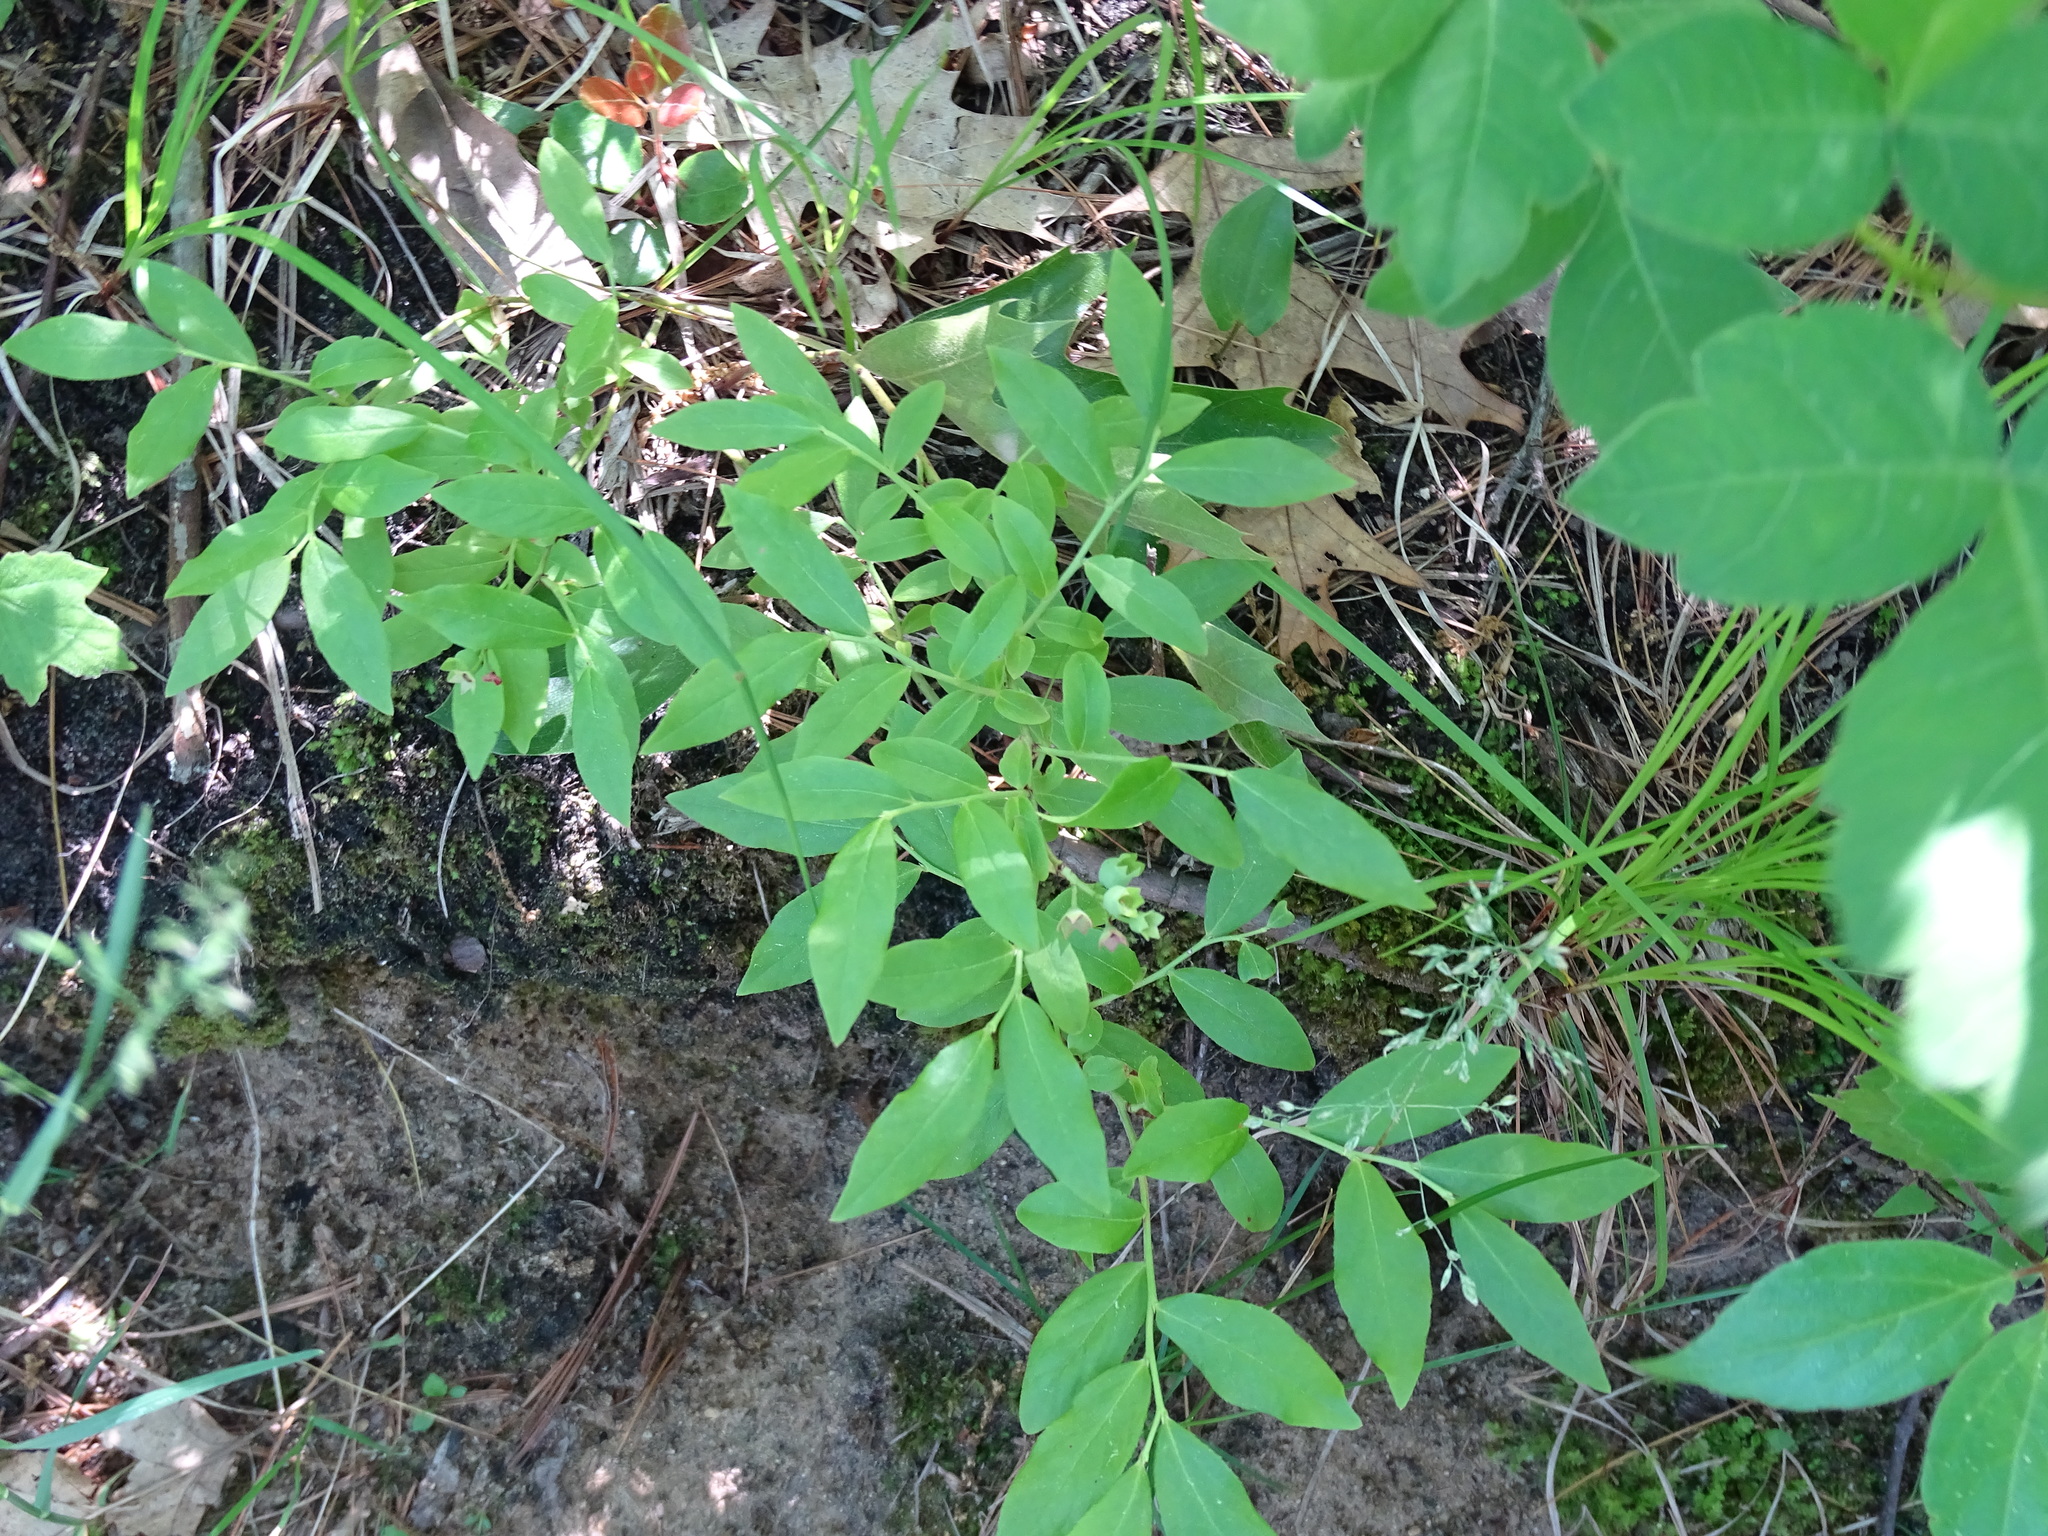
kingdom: Plantae
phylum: Tracheophyta
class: Magnoliopsida
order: Ericales
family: Ericaceae
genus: Vaccinium
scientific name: Vaccinium angustifolium
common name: Early lowbush blueberry
